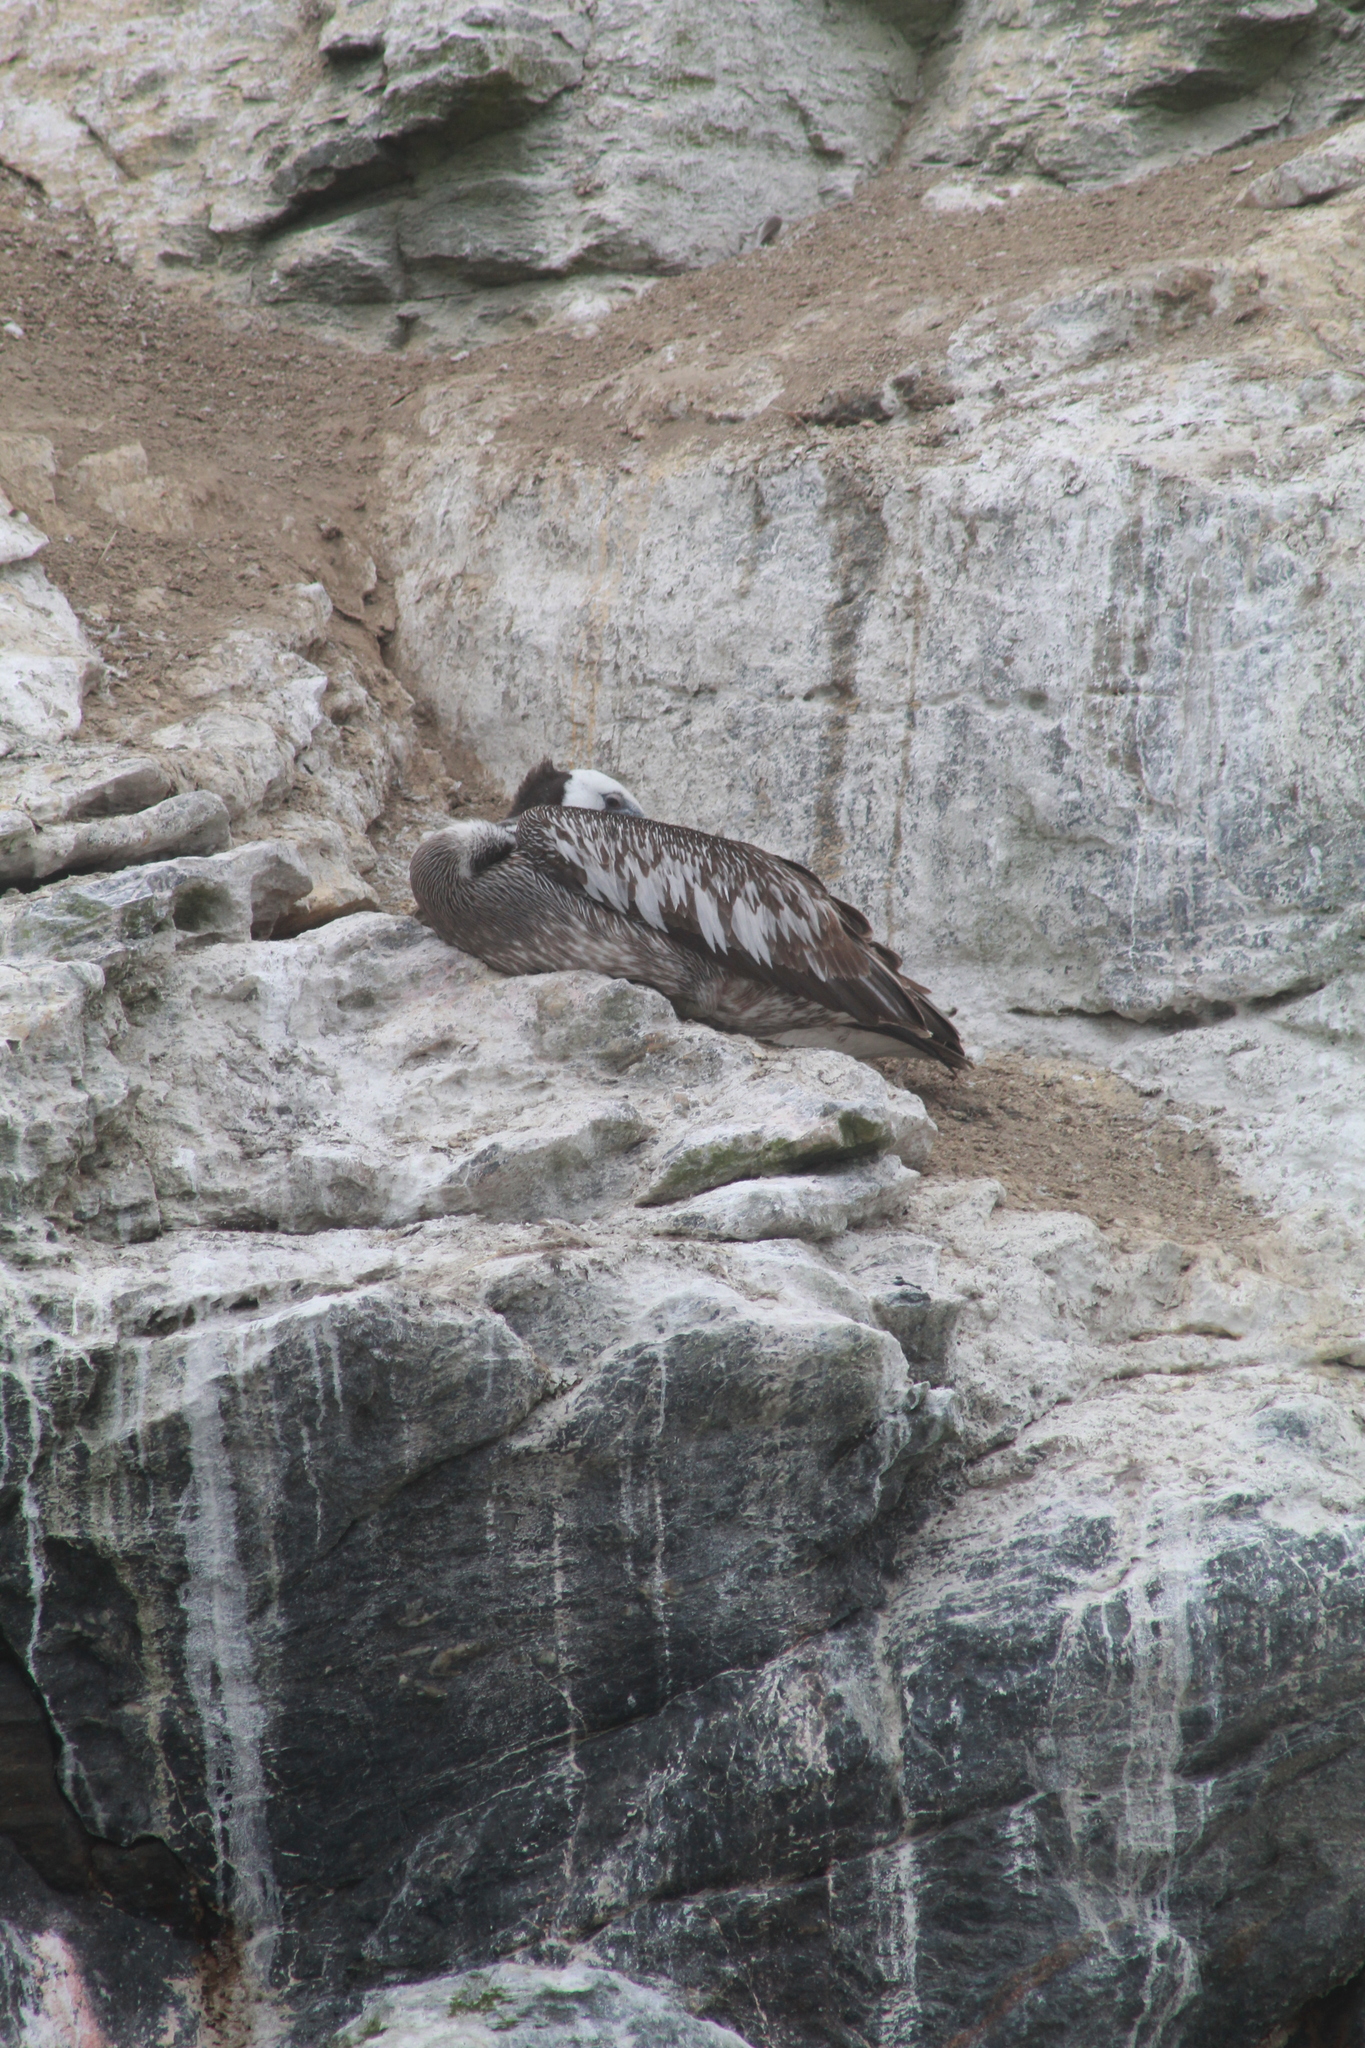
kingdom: Animalia
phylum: Chordata
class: Aves
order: Pelecaniformes
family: Pelecanidae
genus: Pelecanus
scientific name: Pelecanus thagus
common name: Peruvian pelican
